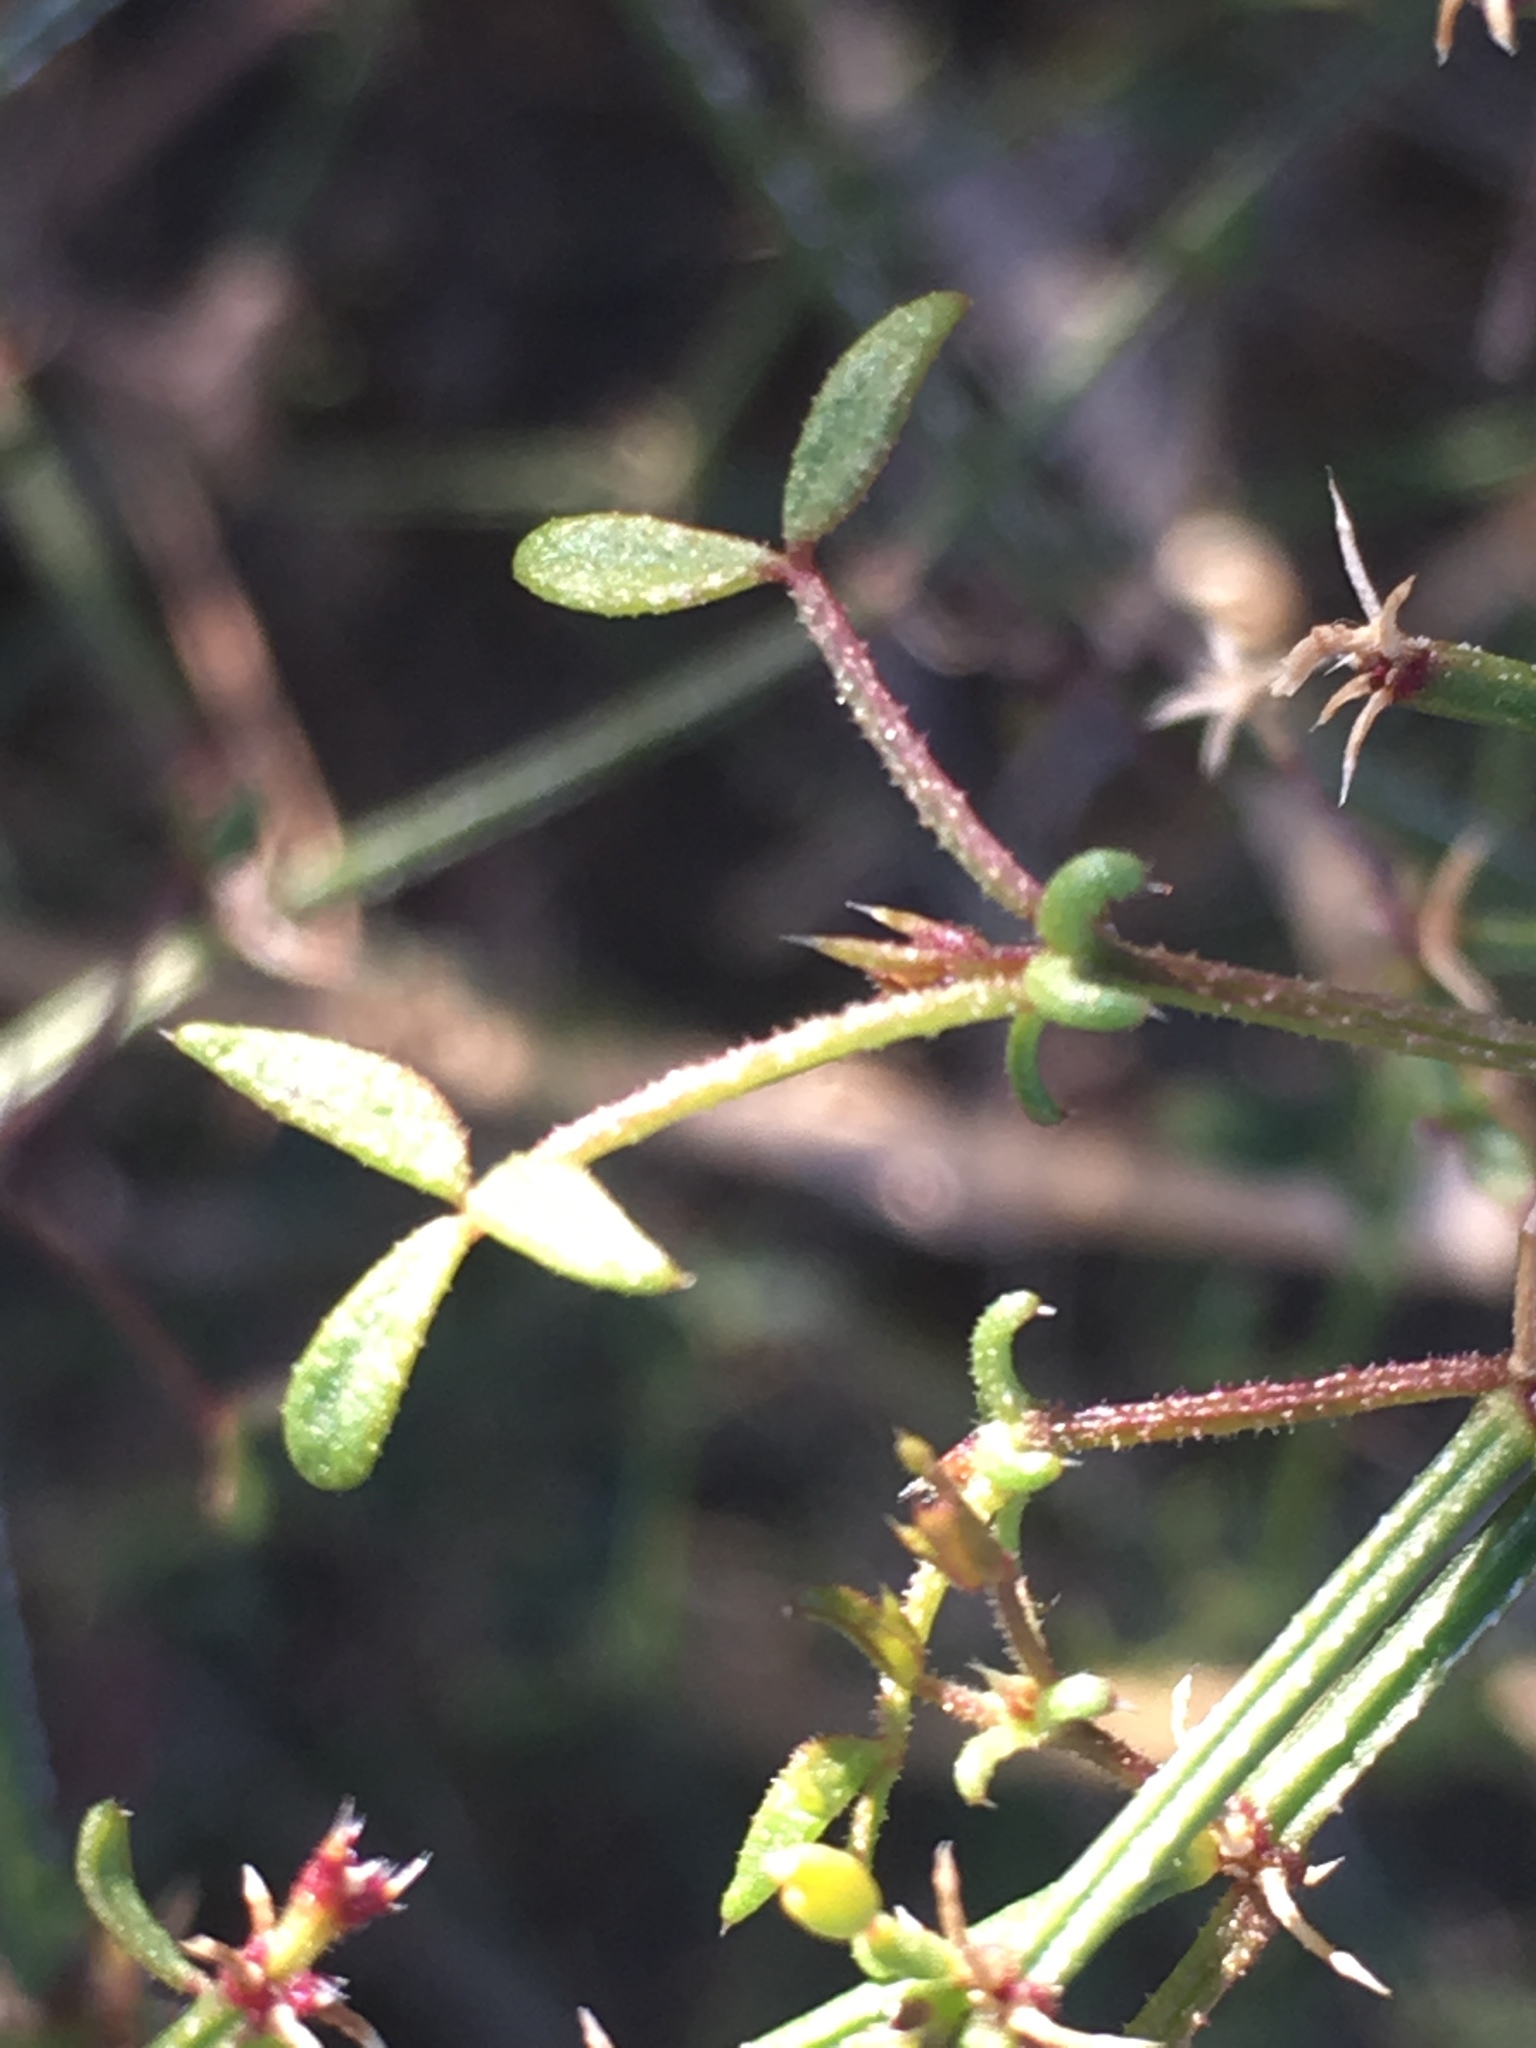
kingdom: Plantae
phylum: Tracheophyta
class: Magnoliopsida
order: Zygophyllales
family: Zygophyllaceae
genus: Fagonia
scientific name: Fagonia laevis
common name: California fagonbush
